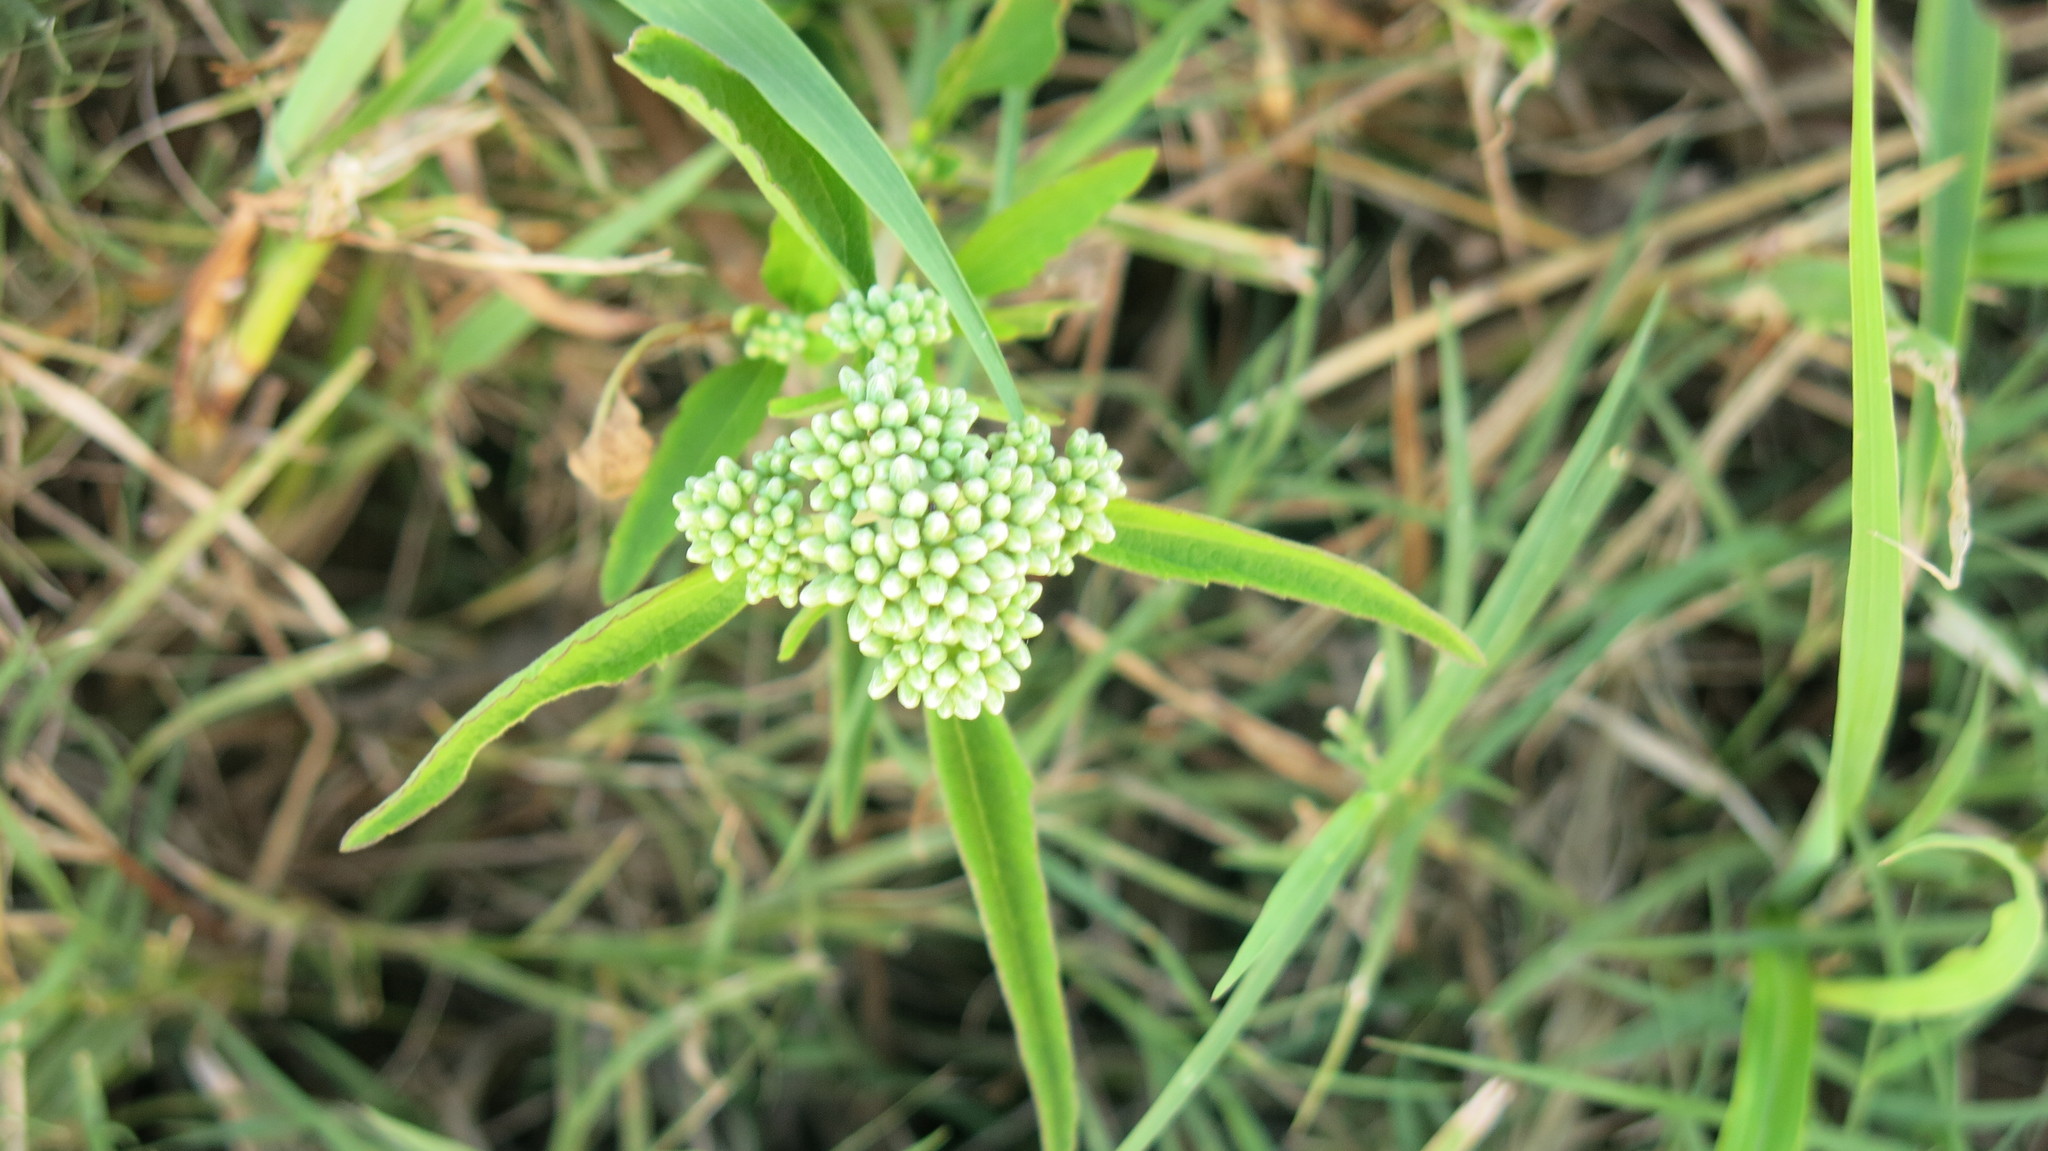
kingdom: Plantae
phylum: Tracheophyta
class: Magnoliopsida
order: Asterales
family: Asteraceae
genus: Baccharis
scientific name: Baccharis glutinosa
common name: Saltmarsh baccharis
